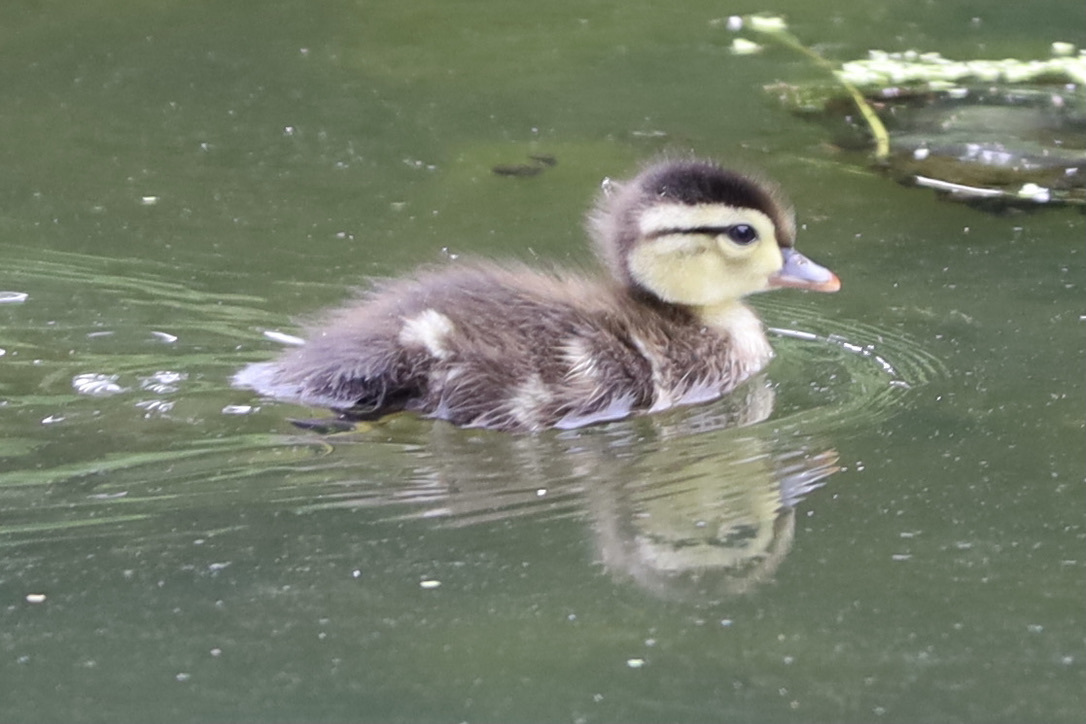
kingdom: Animalia
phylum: Chordata
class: Aves
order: Anseriformes
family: Anatidae
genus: Aix
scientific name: Aix sponsa
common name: Wood duck
